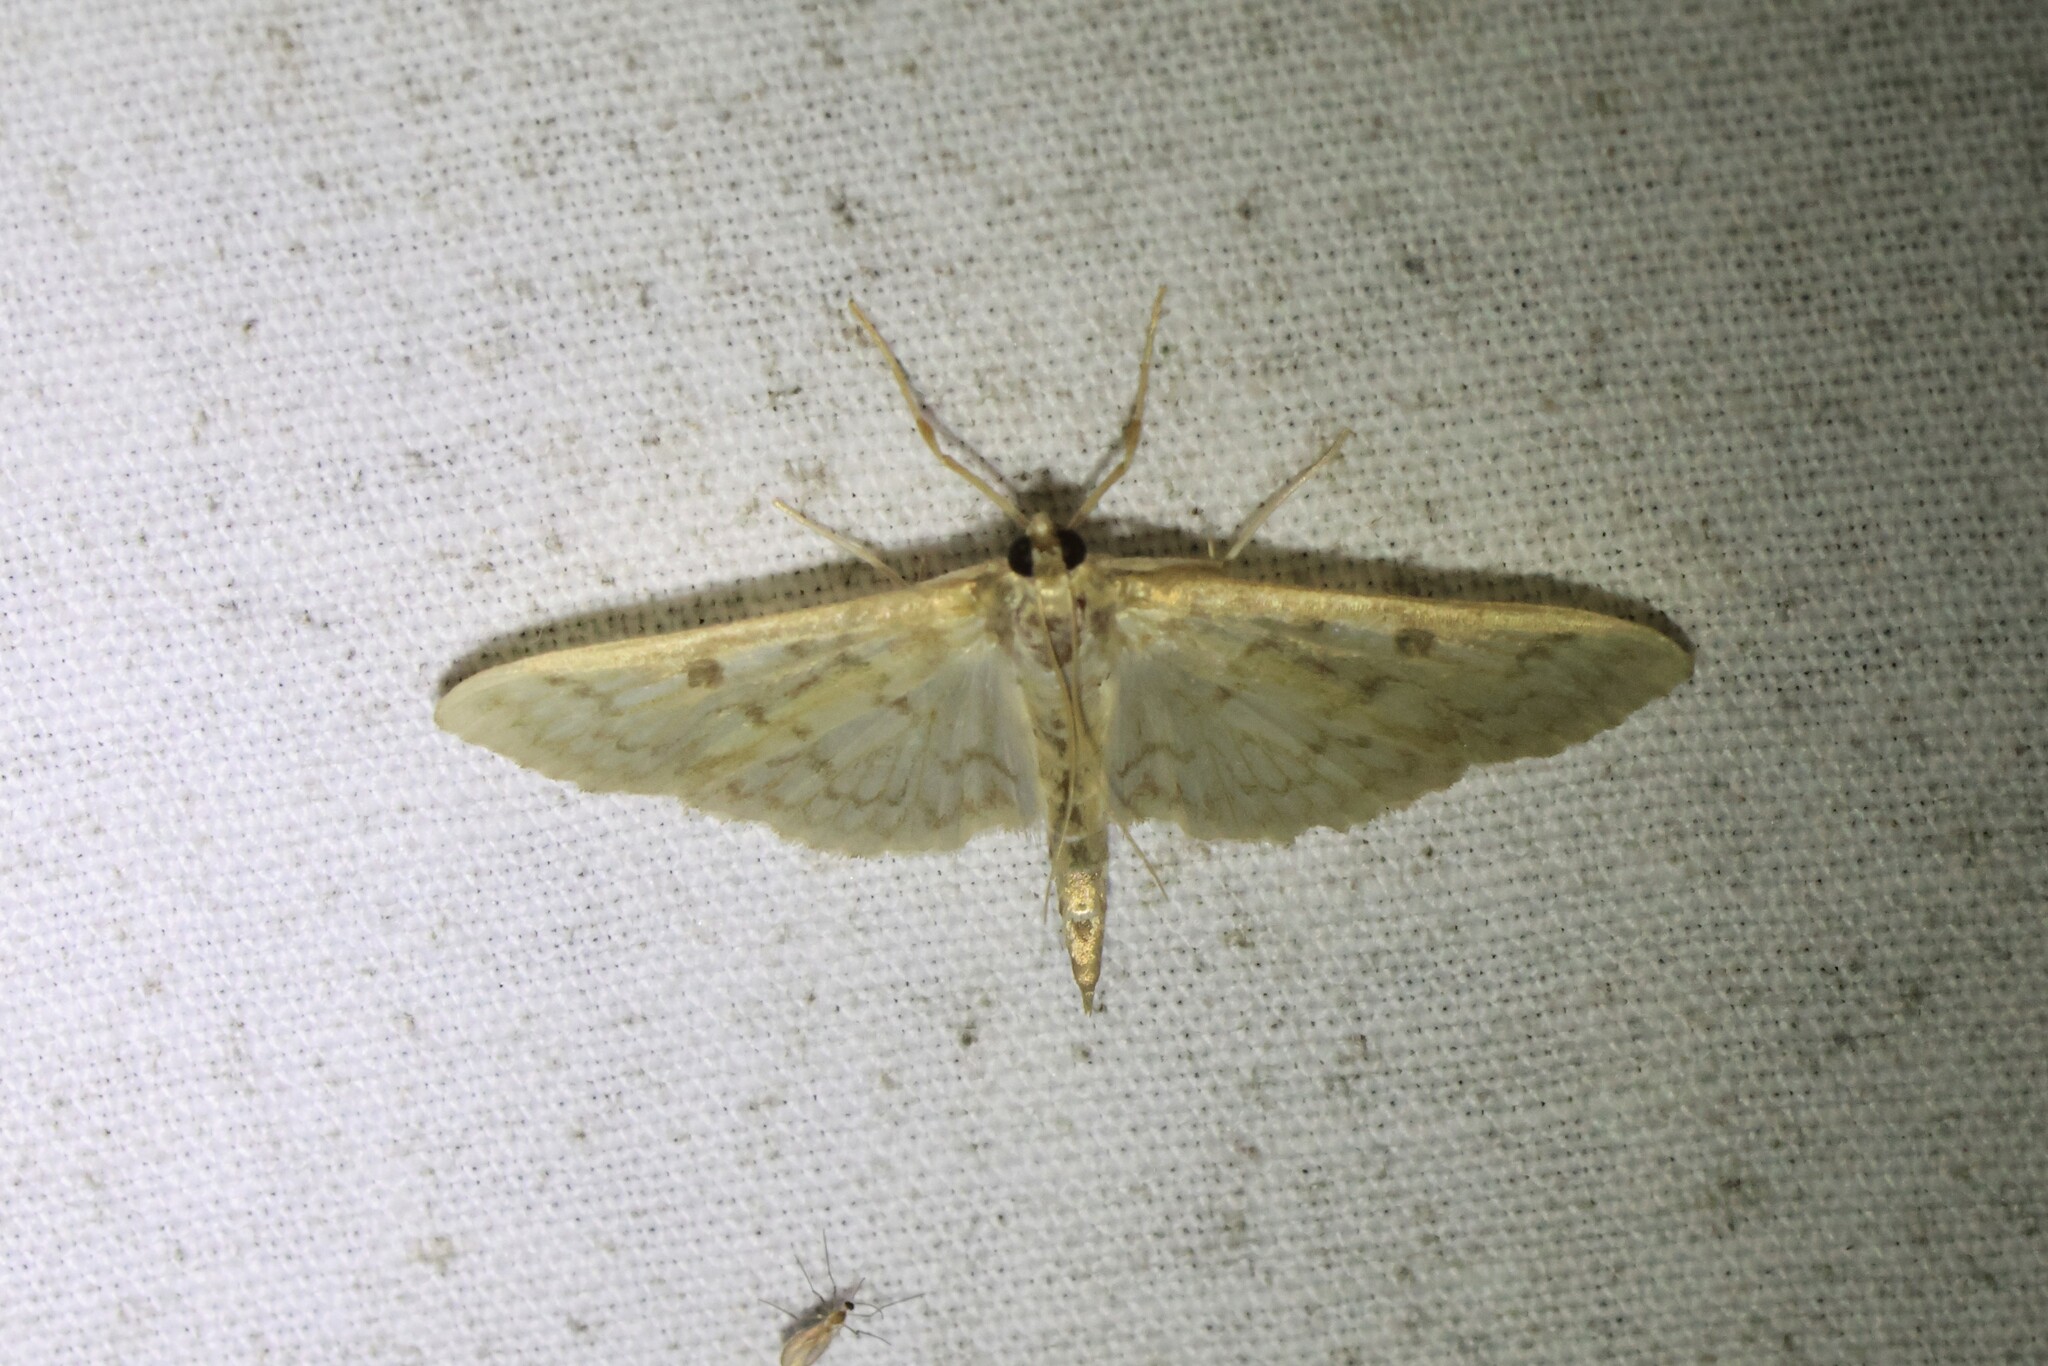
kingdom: Animalia
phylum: Arthropoda
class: Insecta
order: Lepidoptera
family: Crambidae
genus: Herpetogramma
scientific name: Herpetogramma aquilonalis
